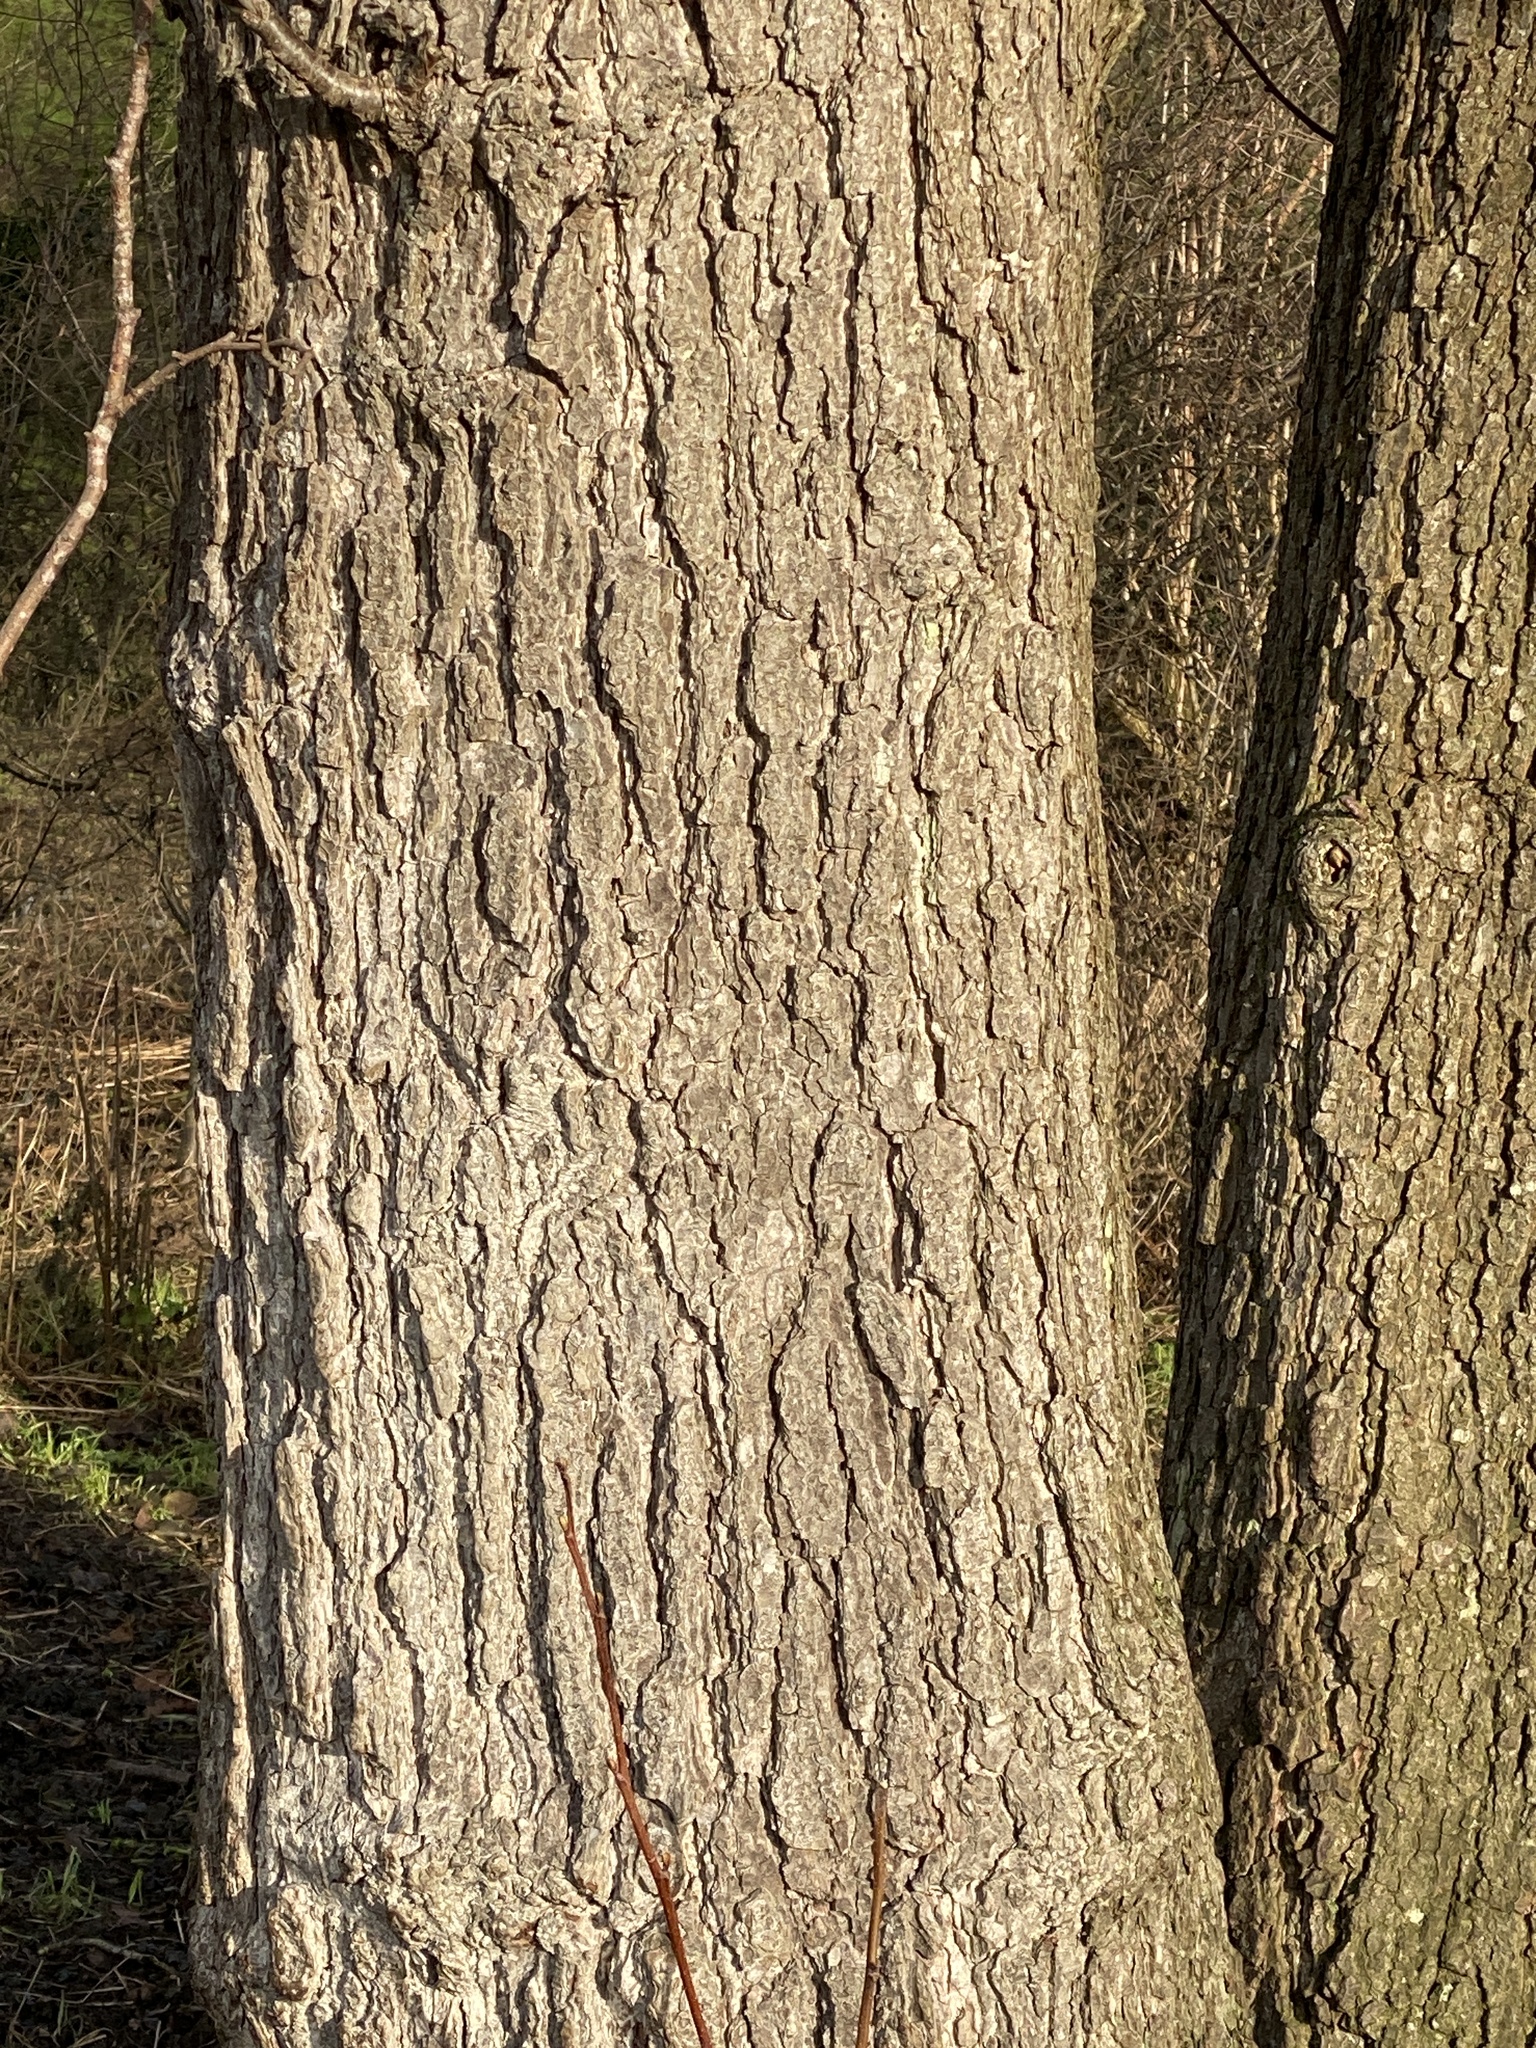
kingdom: Plantae
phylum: Tracheophyta
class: Magnoliopsida
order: Fagales
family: Betulaceae
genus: Alnus
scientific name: Alnus glutinosa
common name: Black alder
